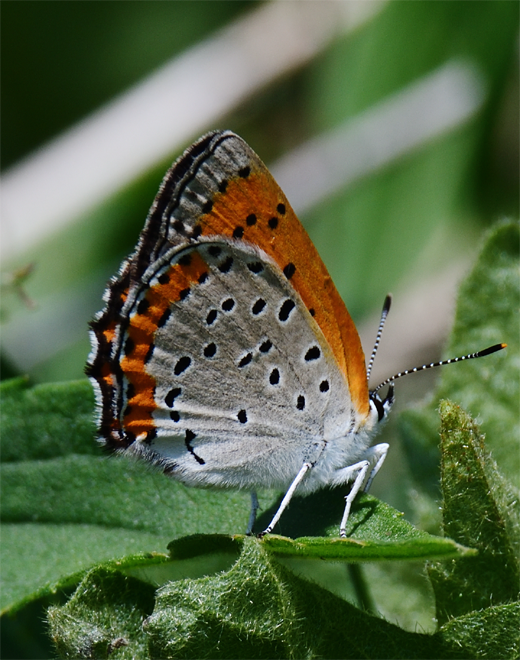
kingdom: Animalia
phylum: Arthropoda
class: Insecta
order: Lepidoptera
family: Lycaenidae
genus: Tharsalea
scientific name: Tharsalea hyllus
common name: Bronze copper
